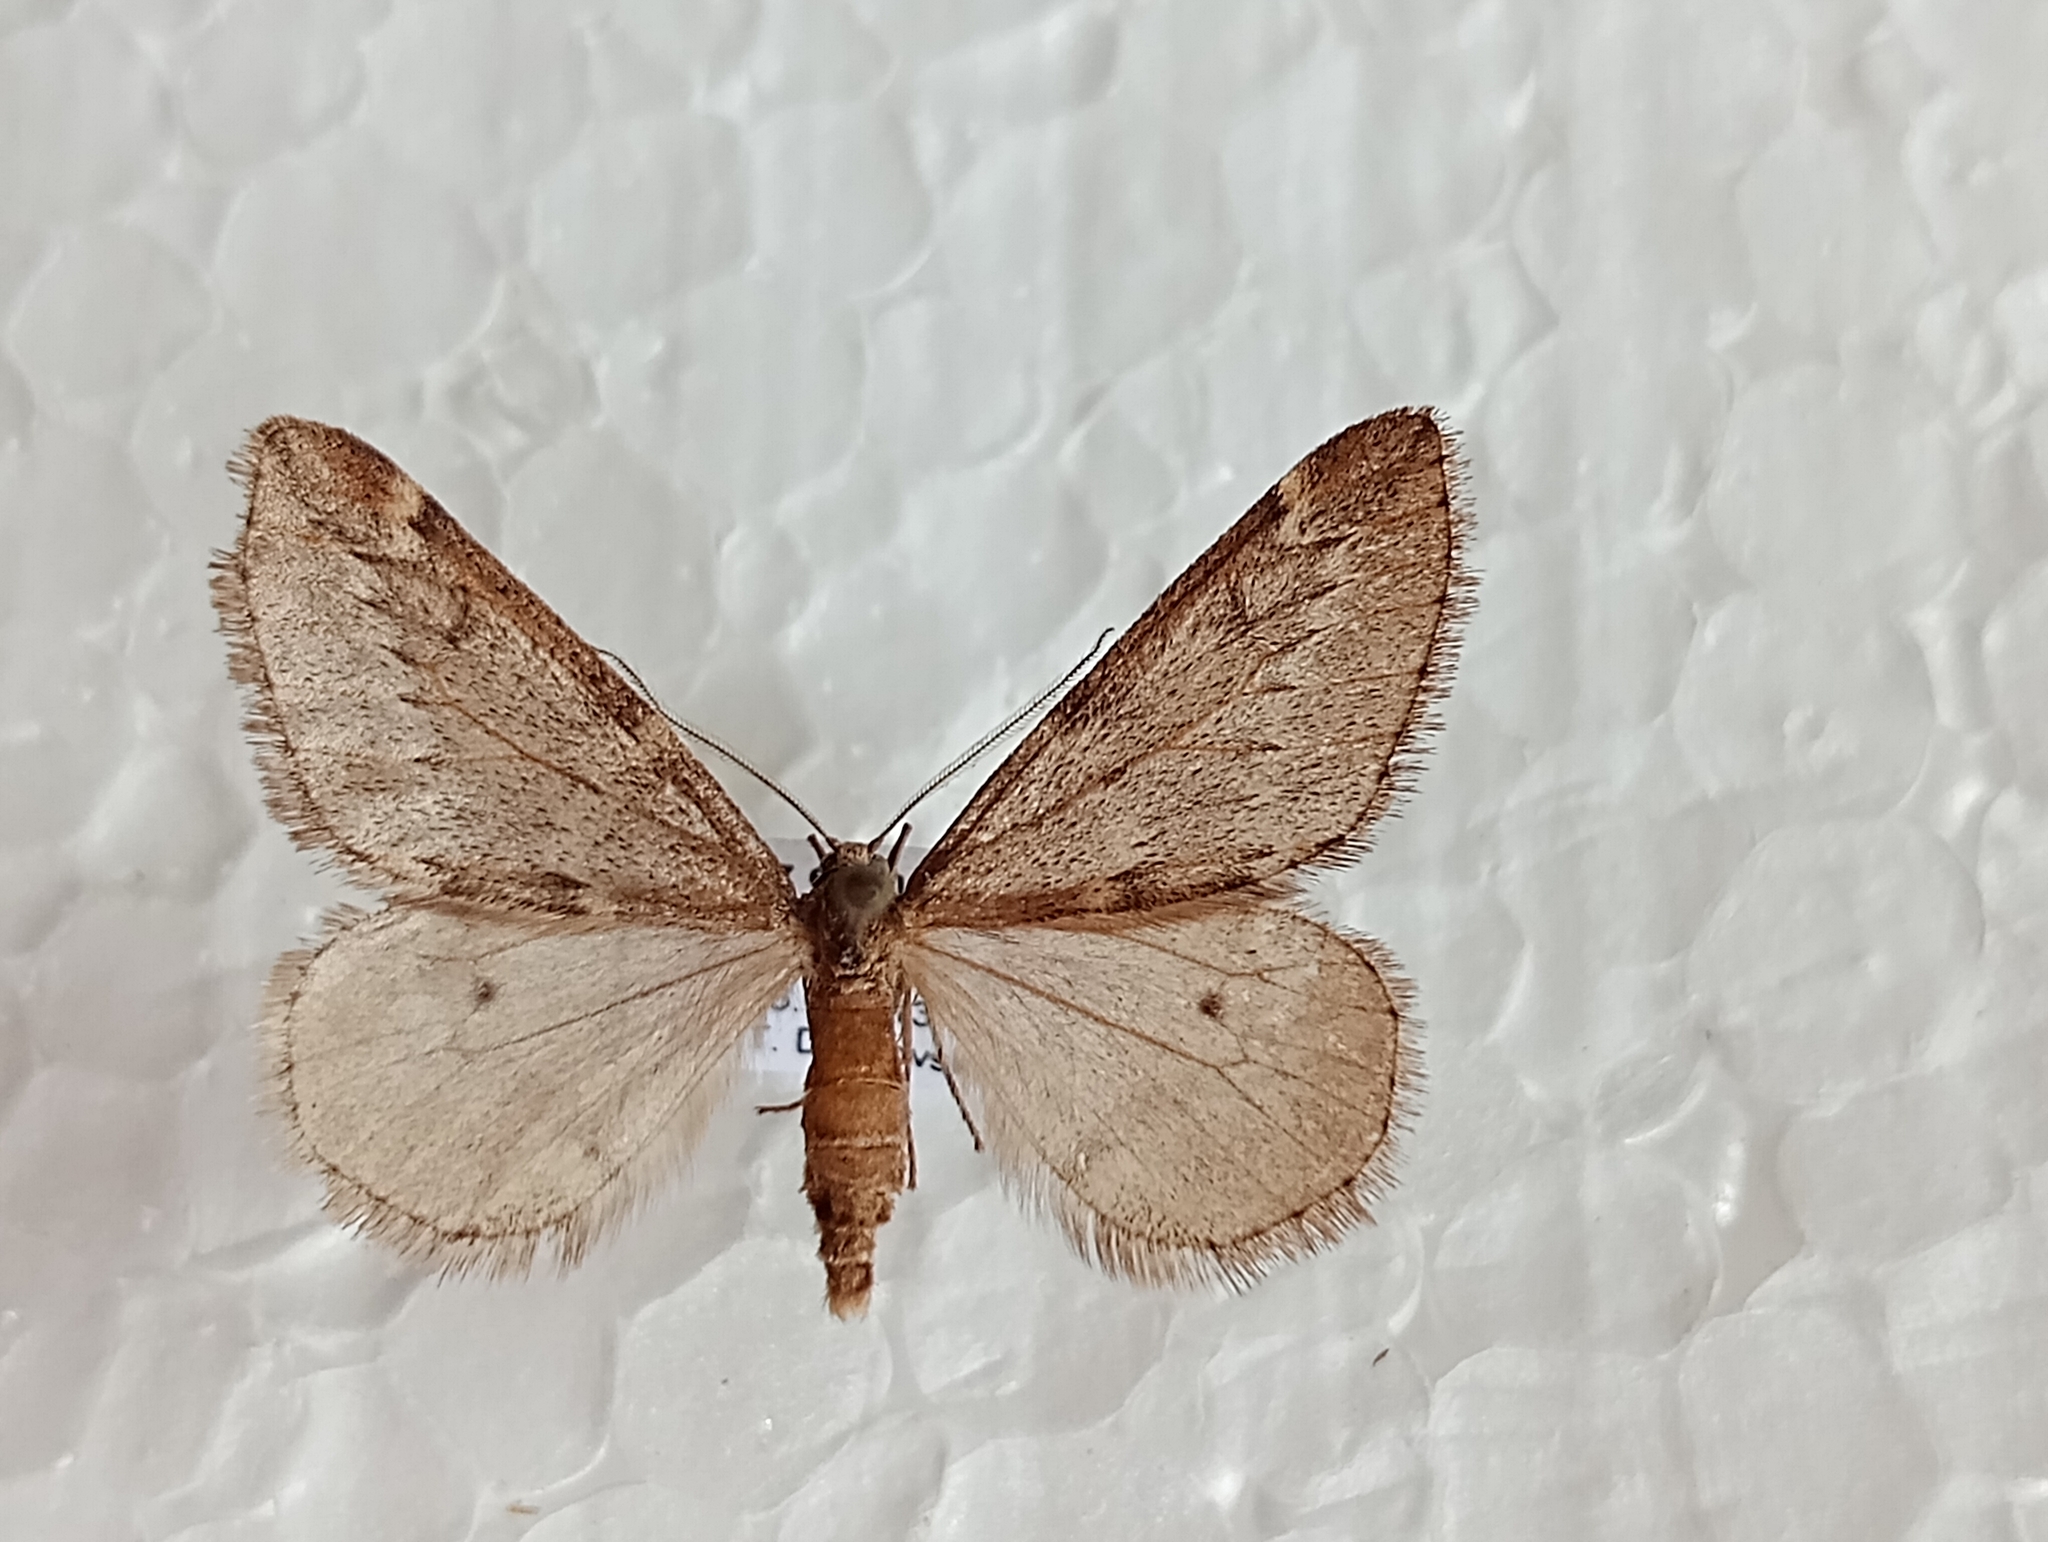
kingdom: Animalia
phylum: Arthropoda
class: Insecta
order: Lepidoptera
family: Geometridae
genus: Alsophila
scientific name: Alsophila aescularia
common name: March moth
